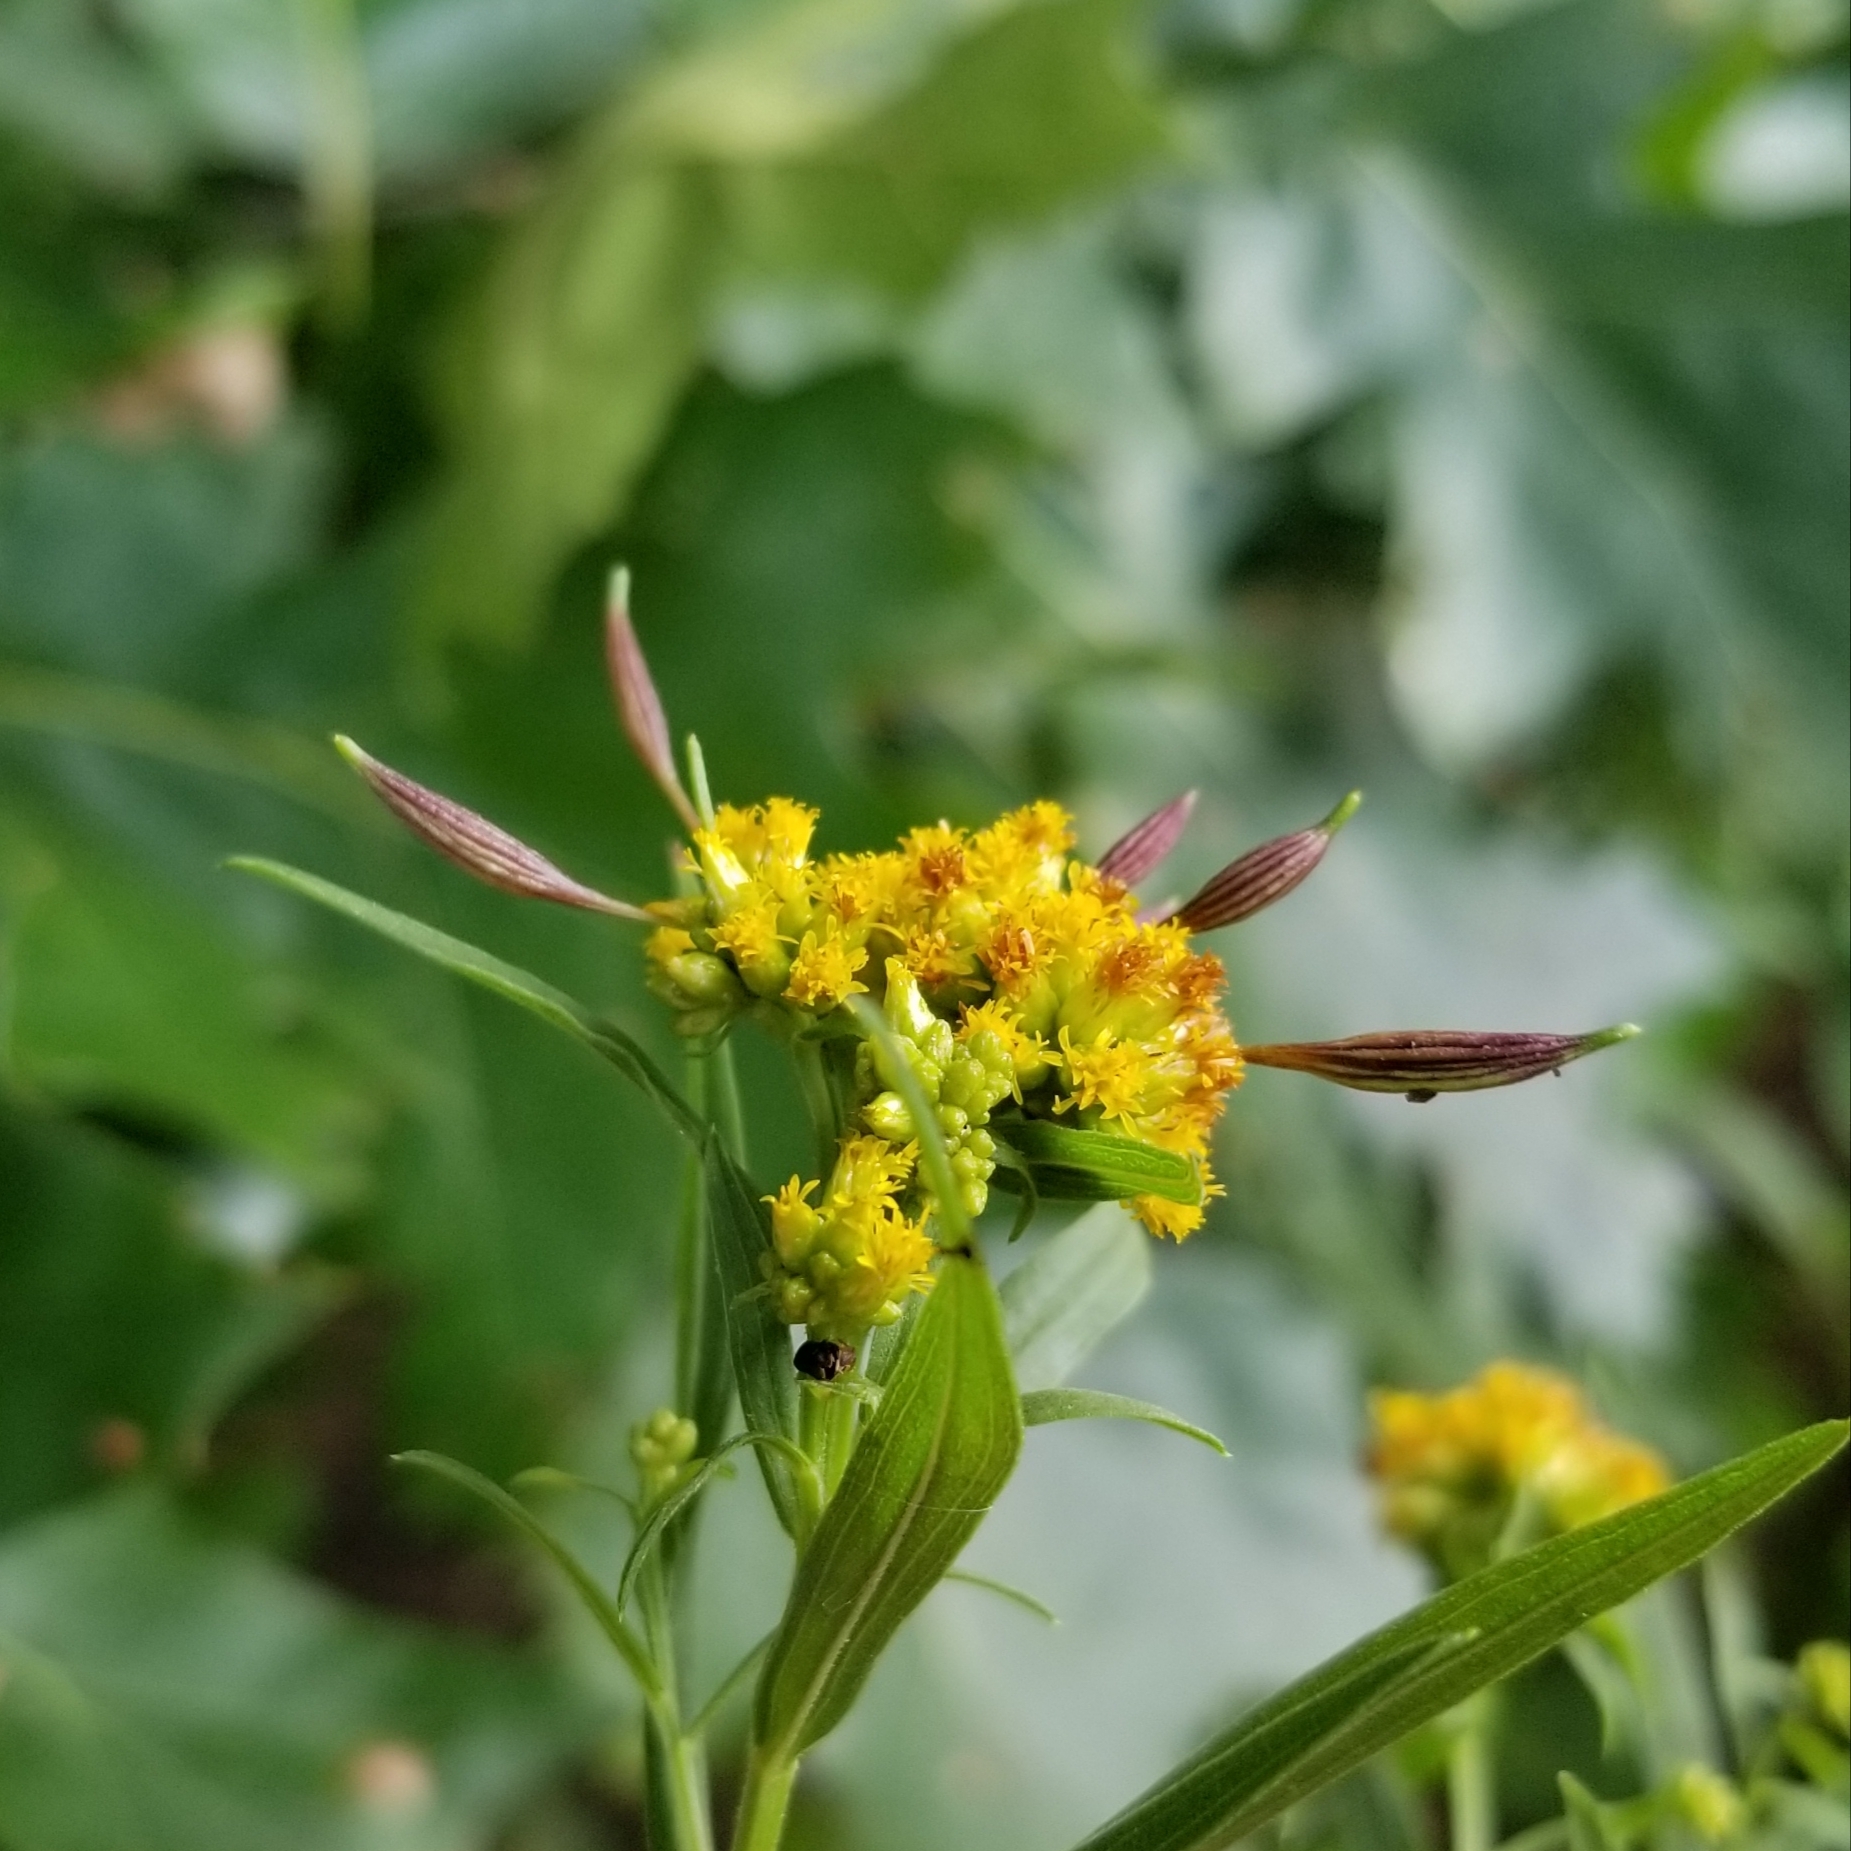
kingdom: Animalia
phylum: Arthropoda
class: Insecta
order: Diptera
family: Cecidomyiidae
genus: Rhopalomyia
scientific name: Rhopalomyia pedicellata
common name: Goldentop pedicellate gall midge
